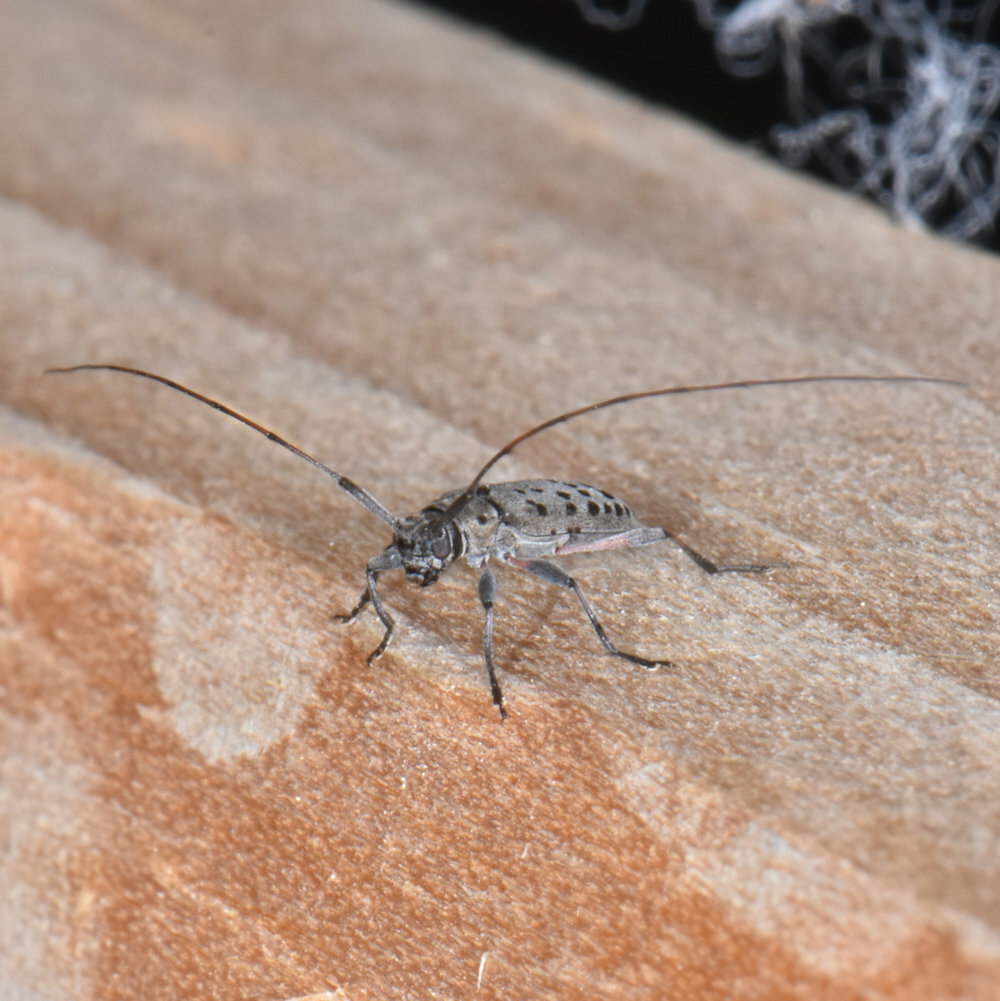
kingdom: Animalia
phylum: Arthropoda
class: Insecta
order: Coleoptera
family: Cerambycidae
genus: Hyperplatys
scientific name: Hyperplatys aspersa
